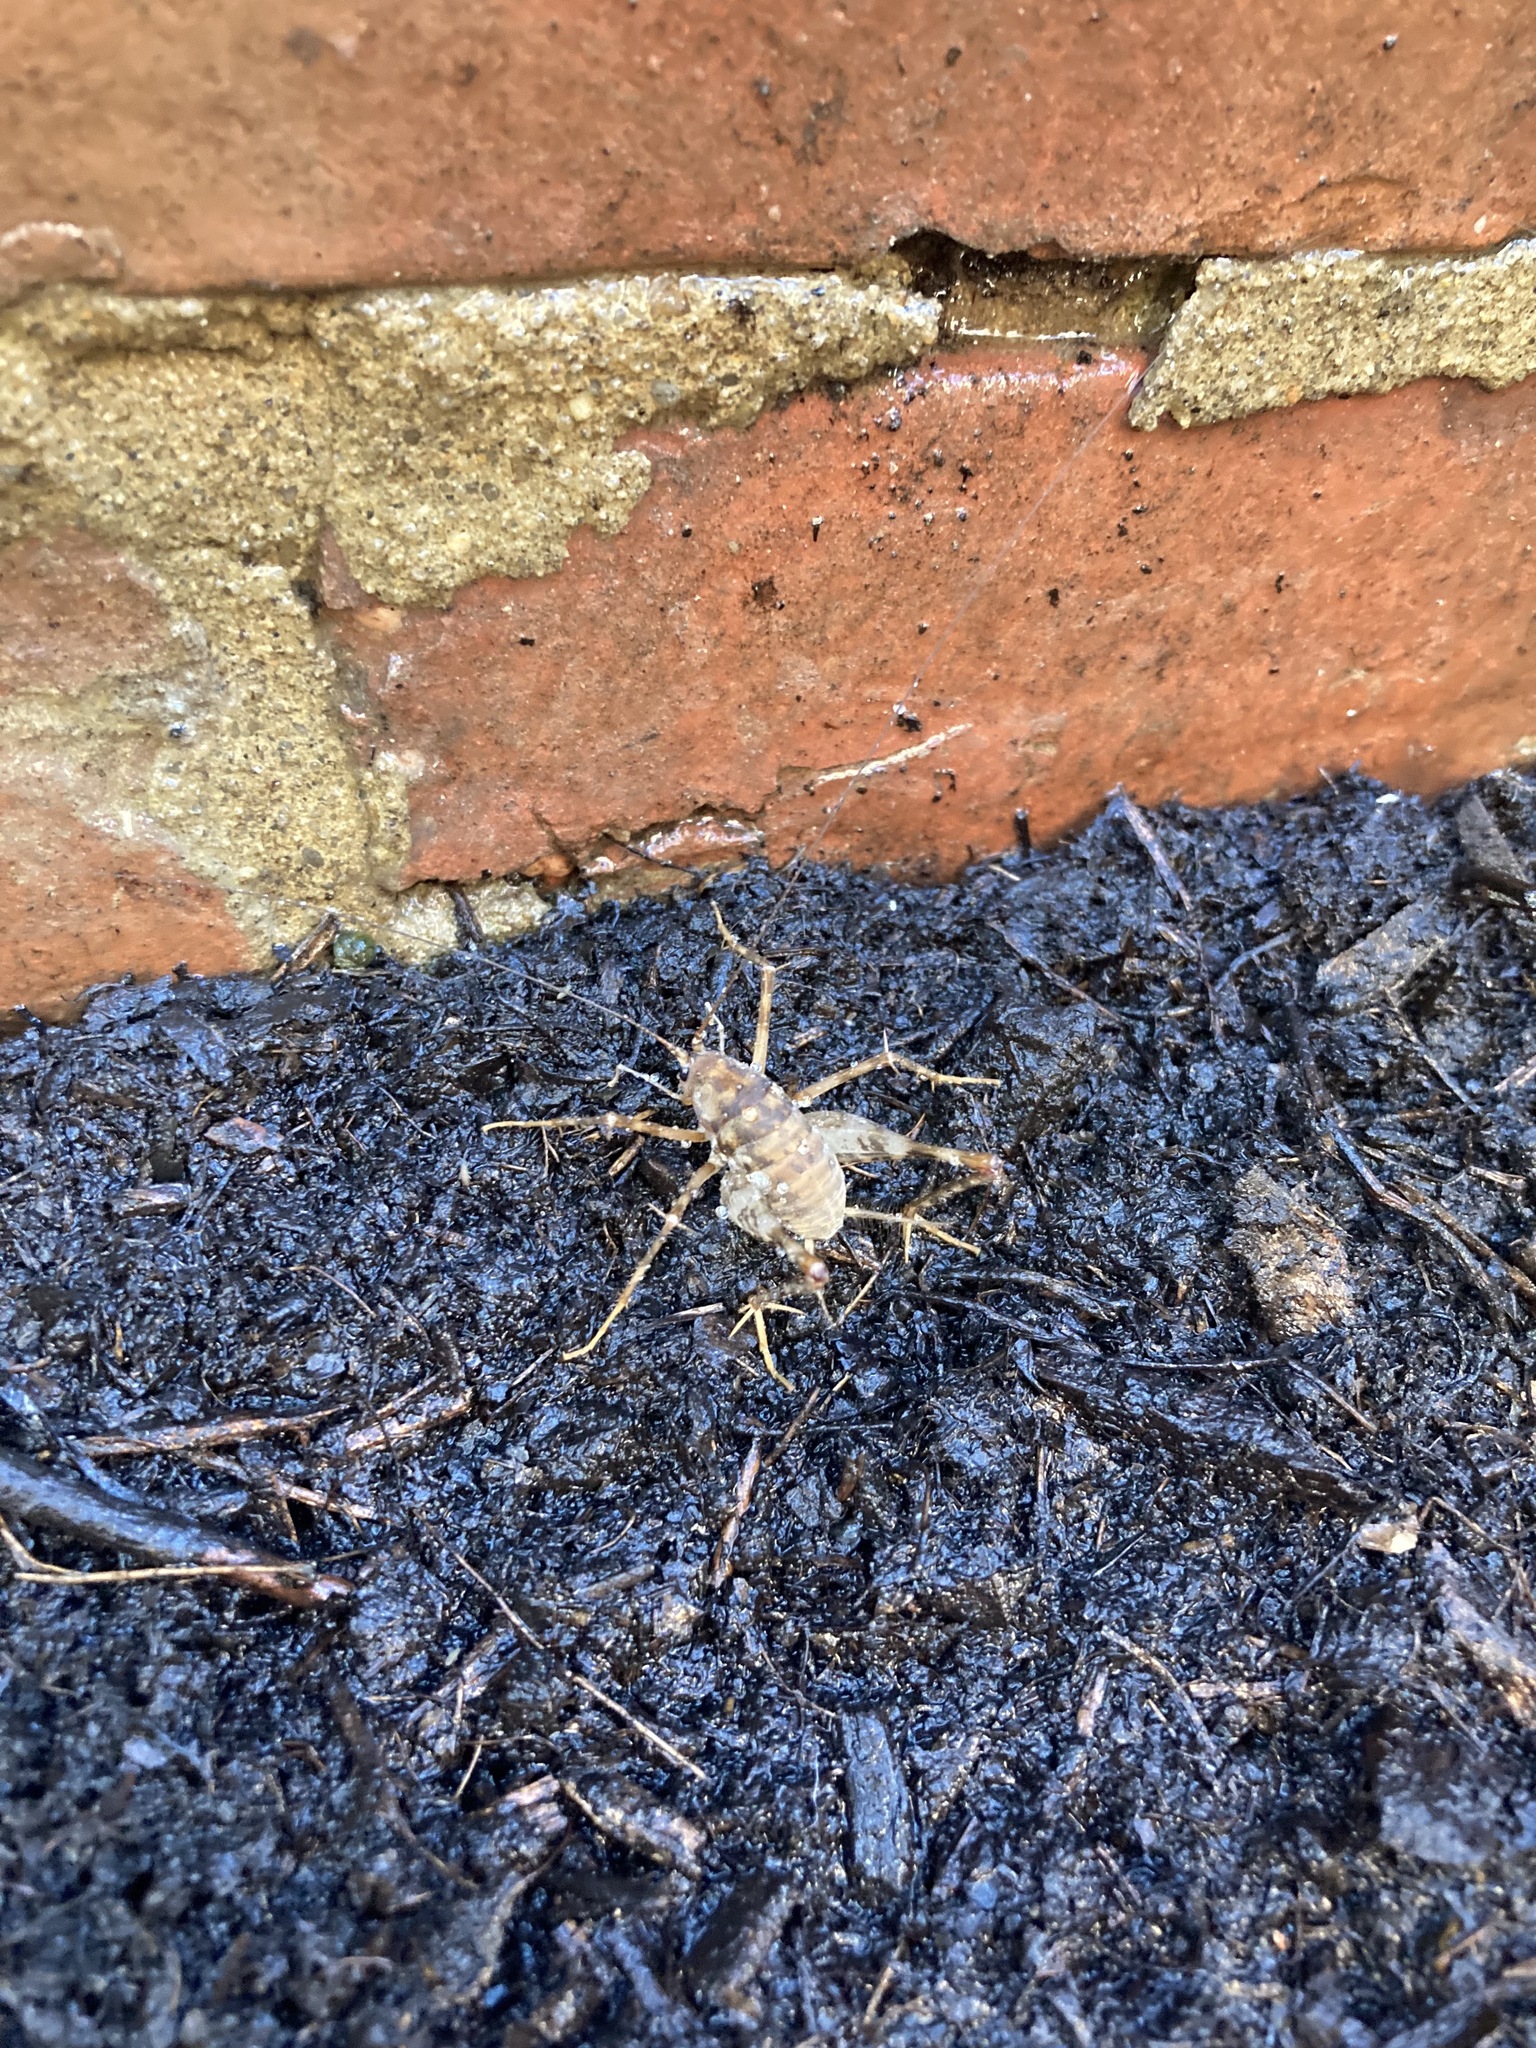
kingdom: Animalia
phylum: Arthropoda
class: Insecta
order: Orthoptera
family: Rhaphidophoridae
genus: Tachycines
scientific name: Tachycines asynamorus
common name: Greenhouse camel cricket
